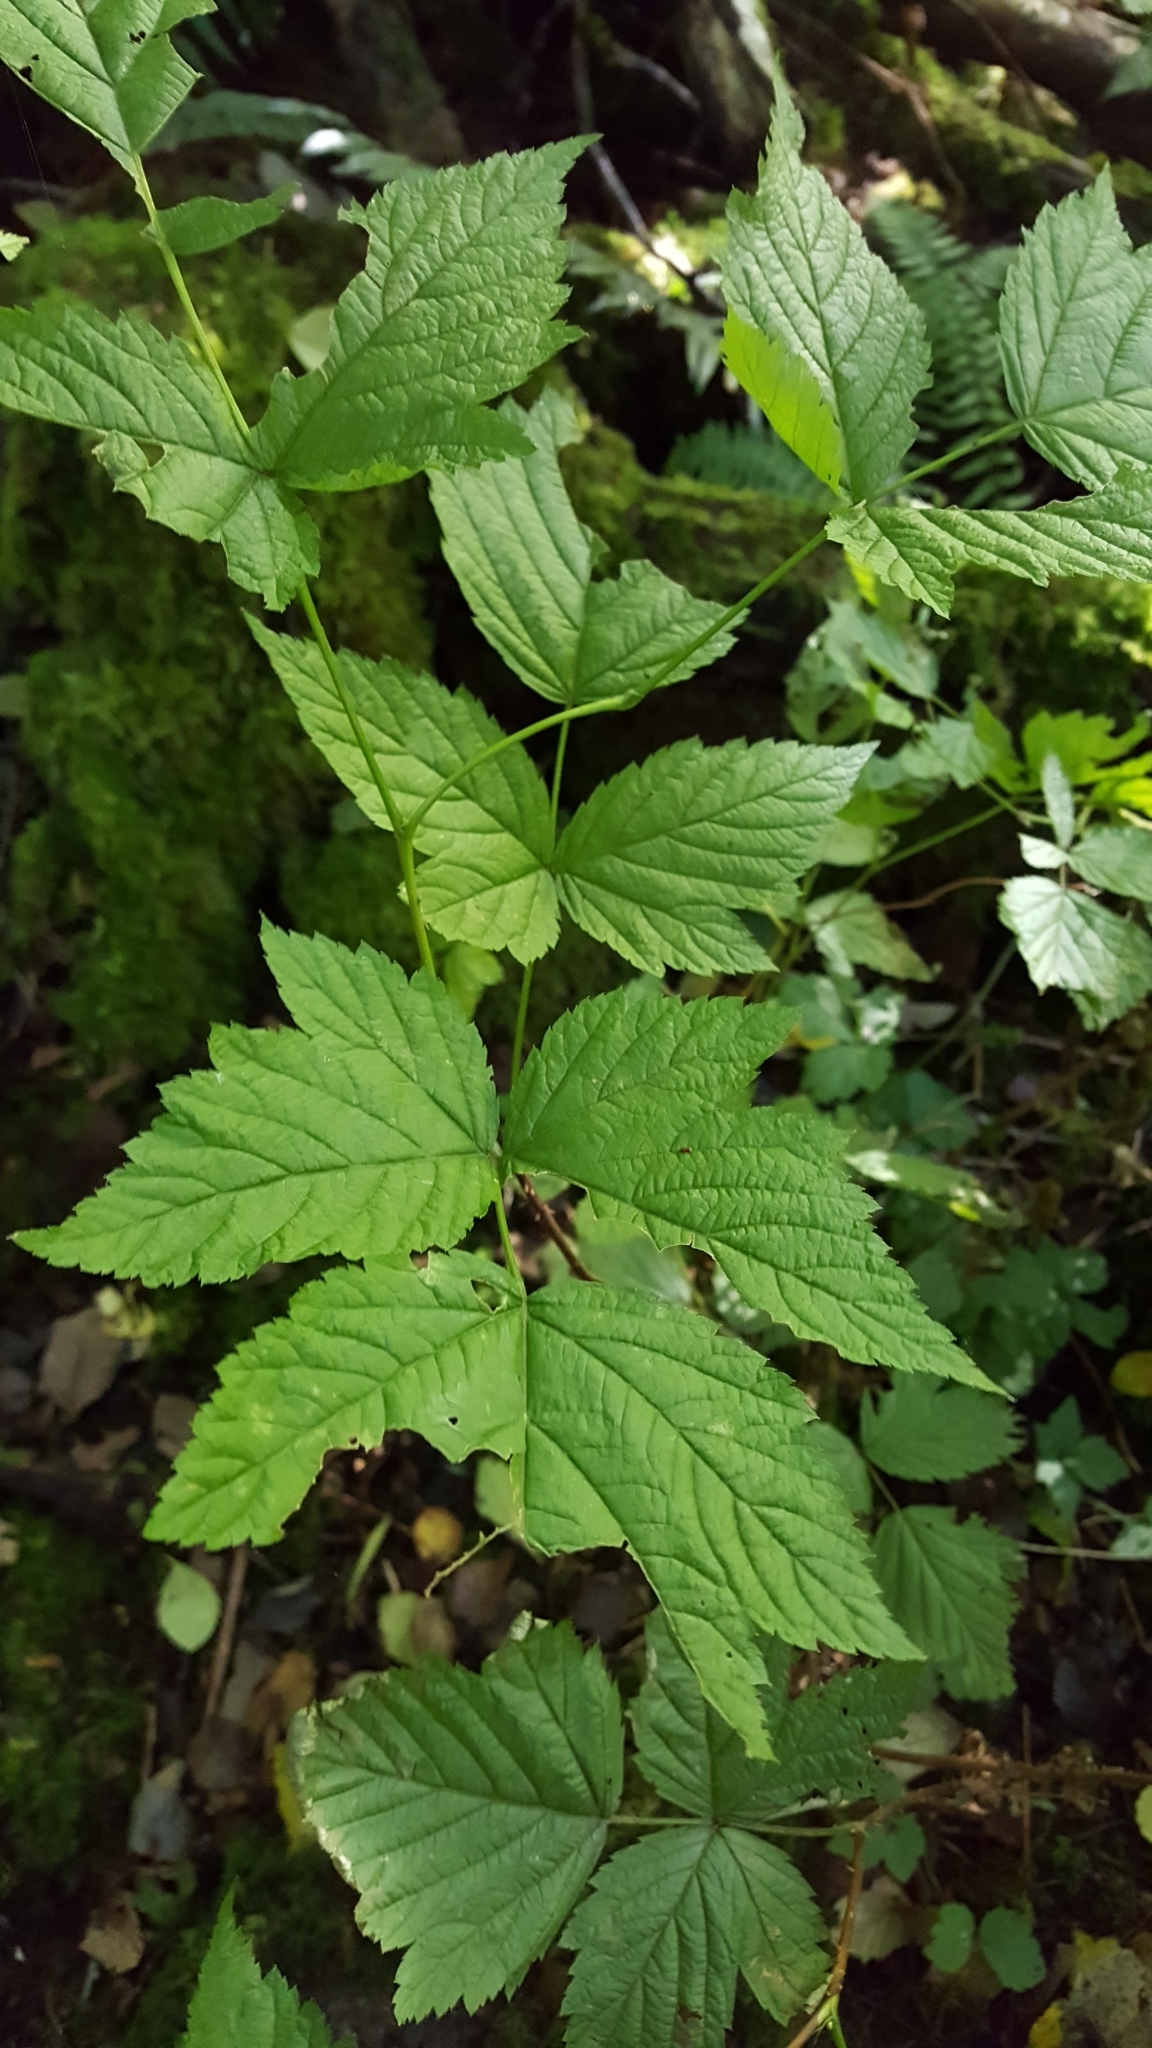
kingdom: Plantae
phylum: Tracheophyta
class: Magnoliopsida
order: Rosales
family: Rosaceae
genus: Rubus
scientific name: Rubus spectabilis
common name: Salmonberry
